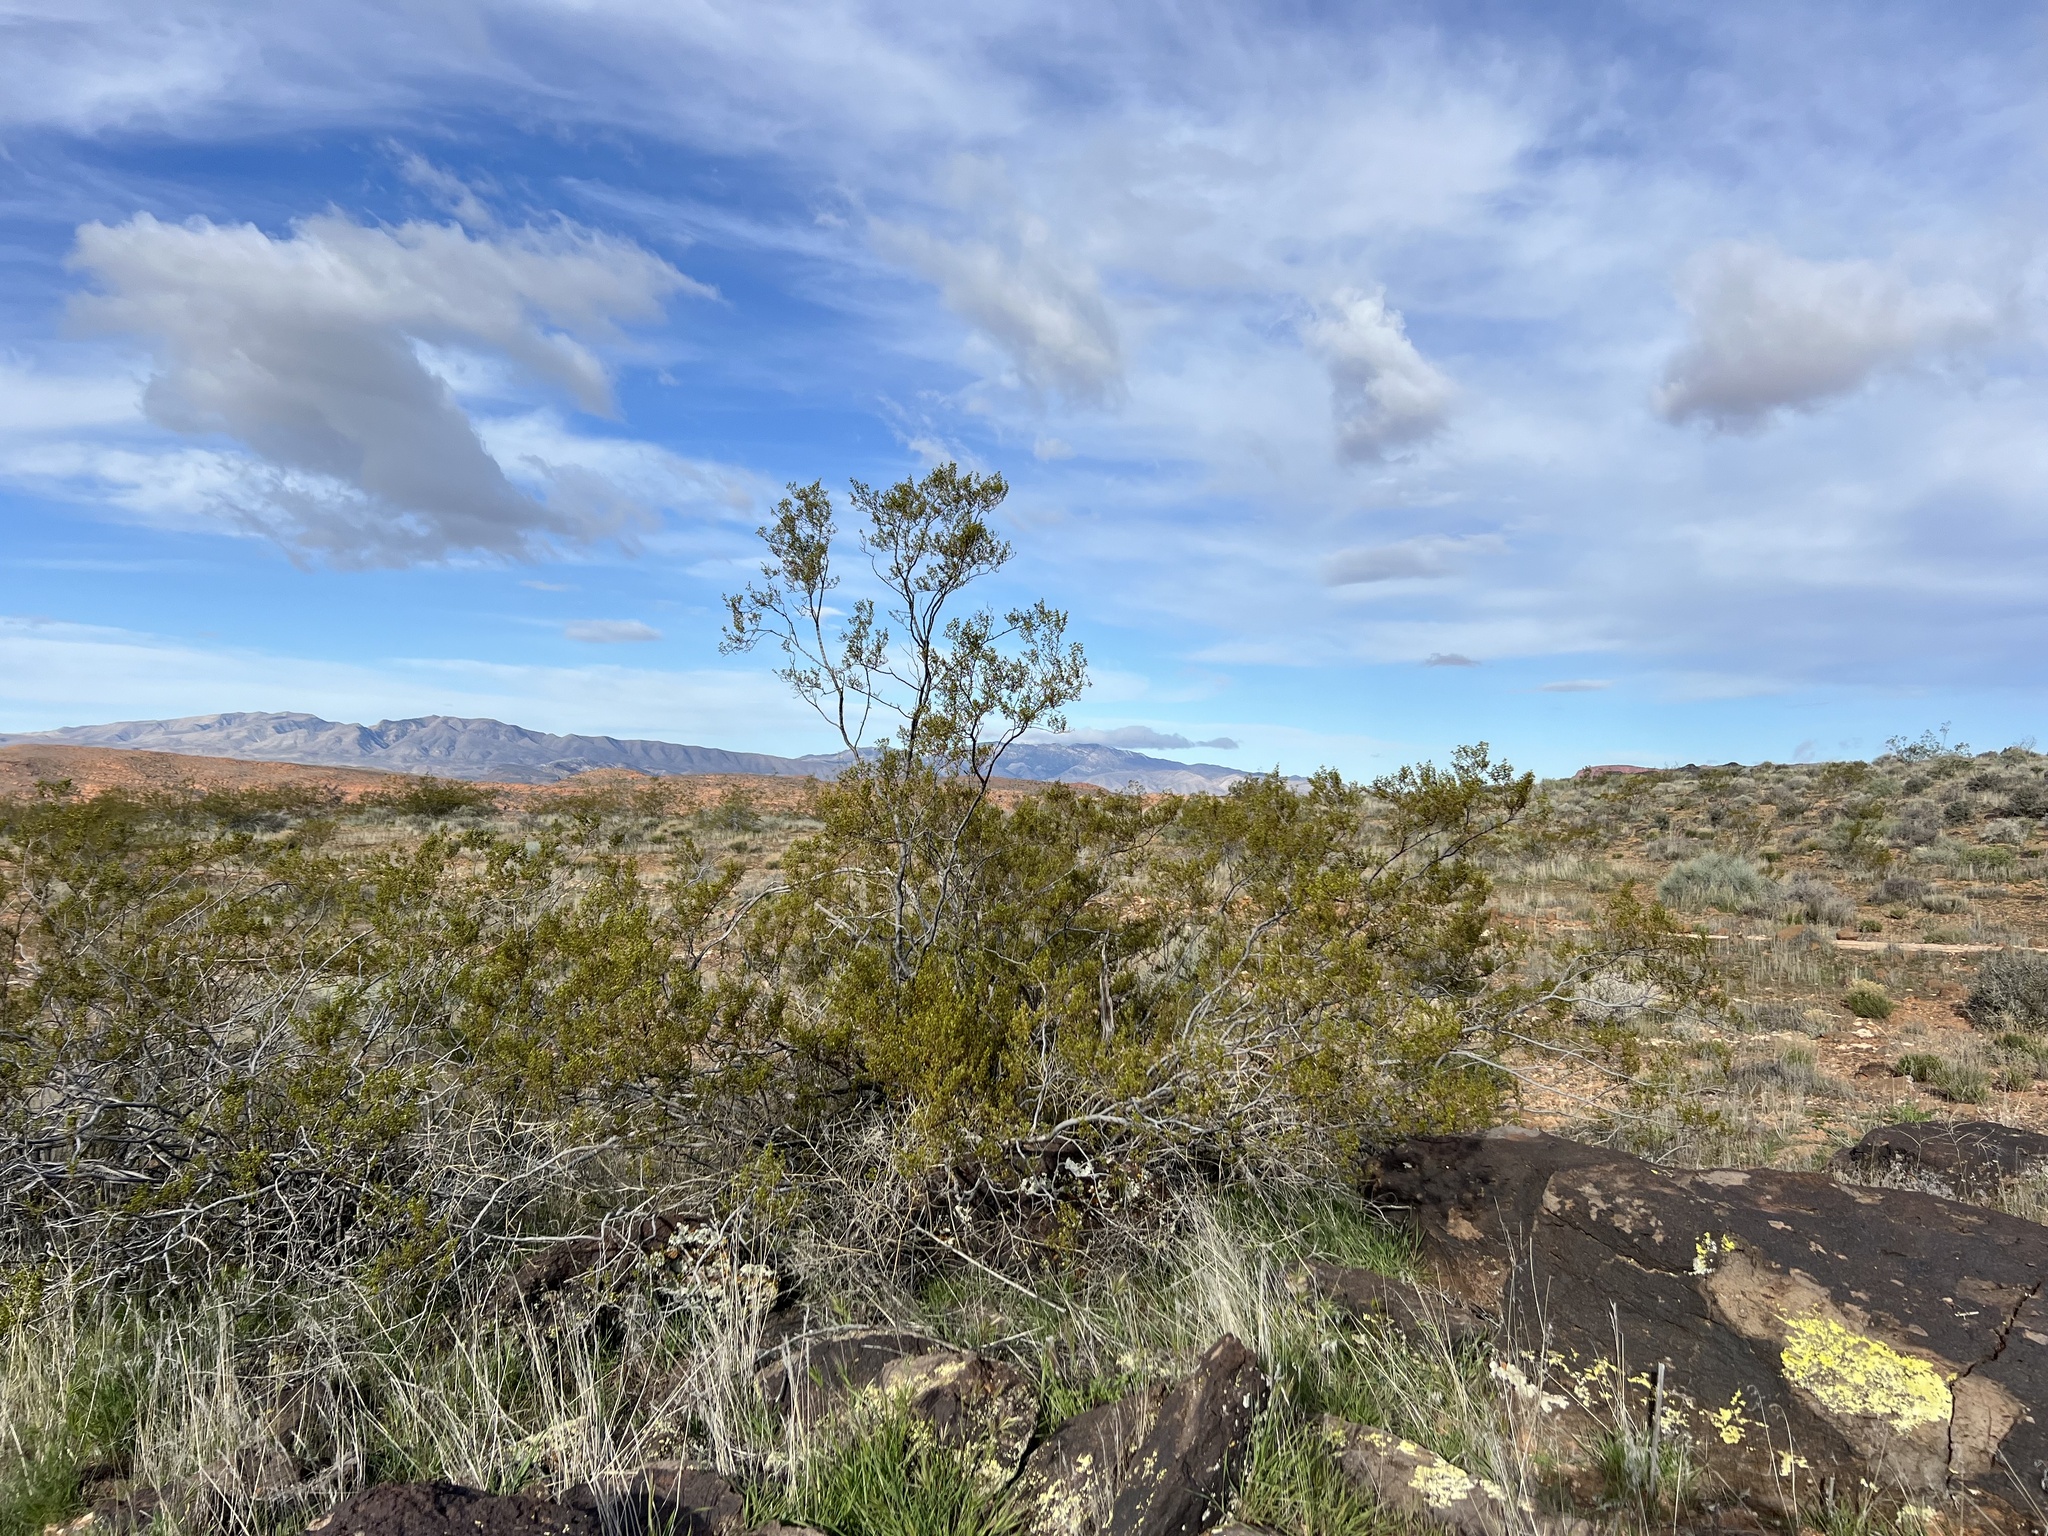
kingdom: Plantae
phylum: Tracheophyta
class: Magnoliopsida
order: Zygophyllales
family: Zygophyllaceae
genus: Larrea
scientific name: Larrea tridentata
